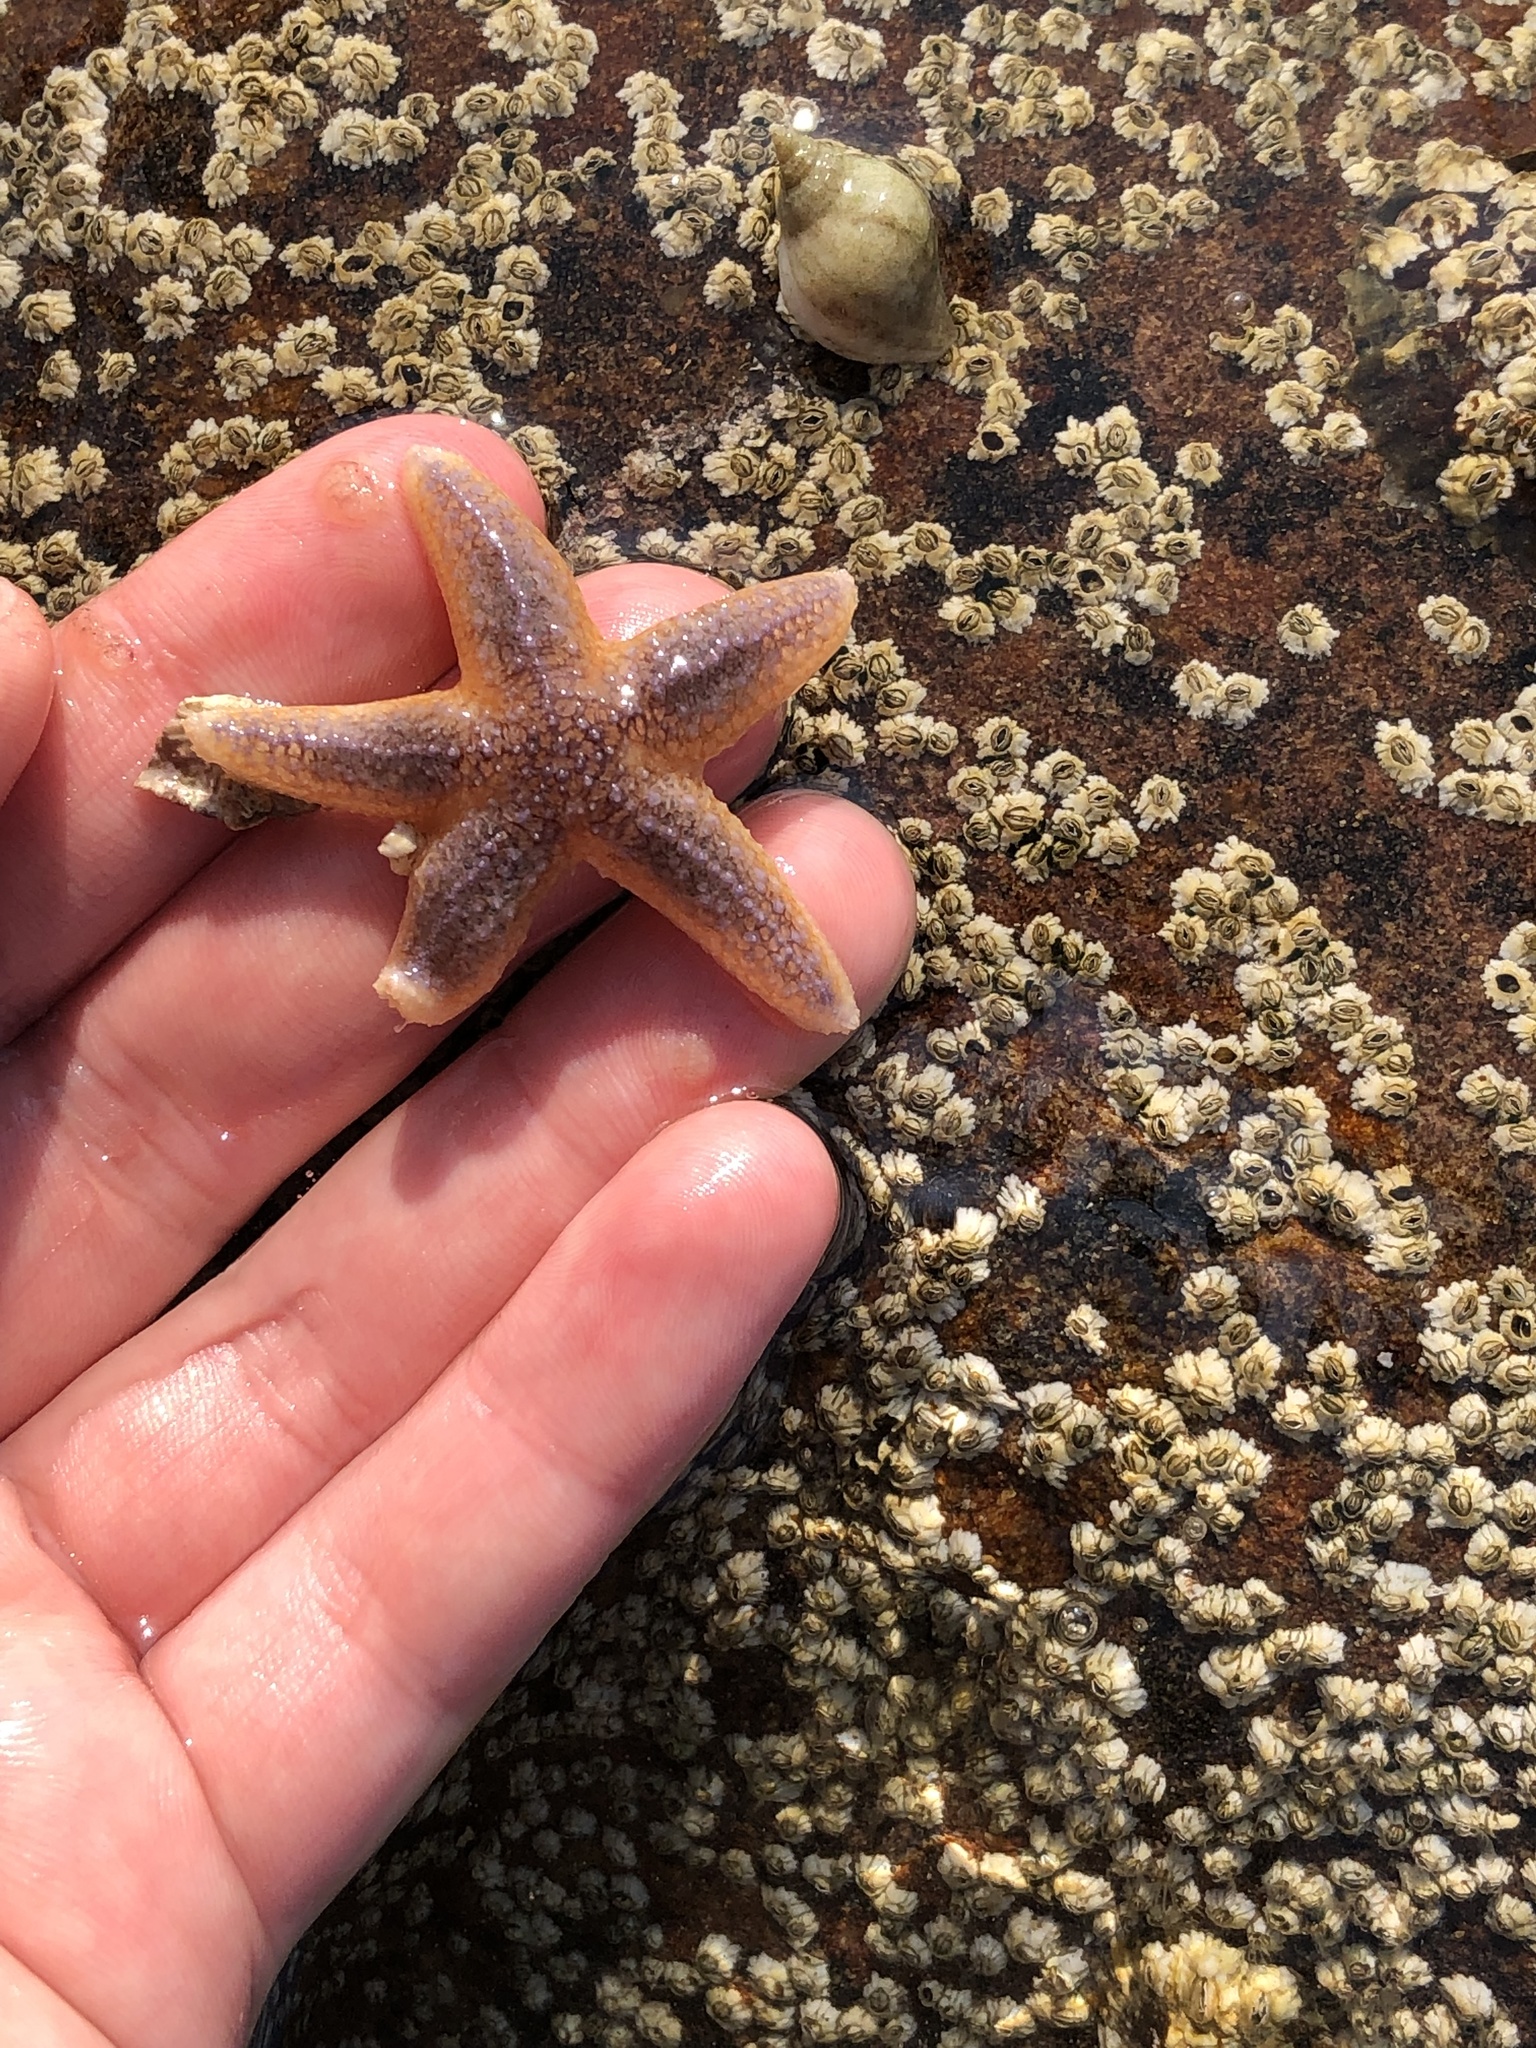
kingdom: Animalia
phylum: Echinodermata
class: Asteroidea
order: Forcipulatida
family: Asteriidae
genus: Asterias
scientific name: Asterias rubens
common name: Common starfish
